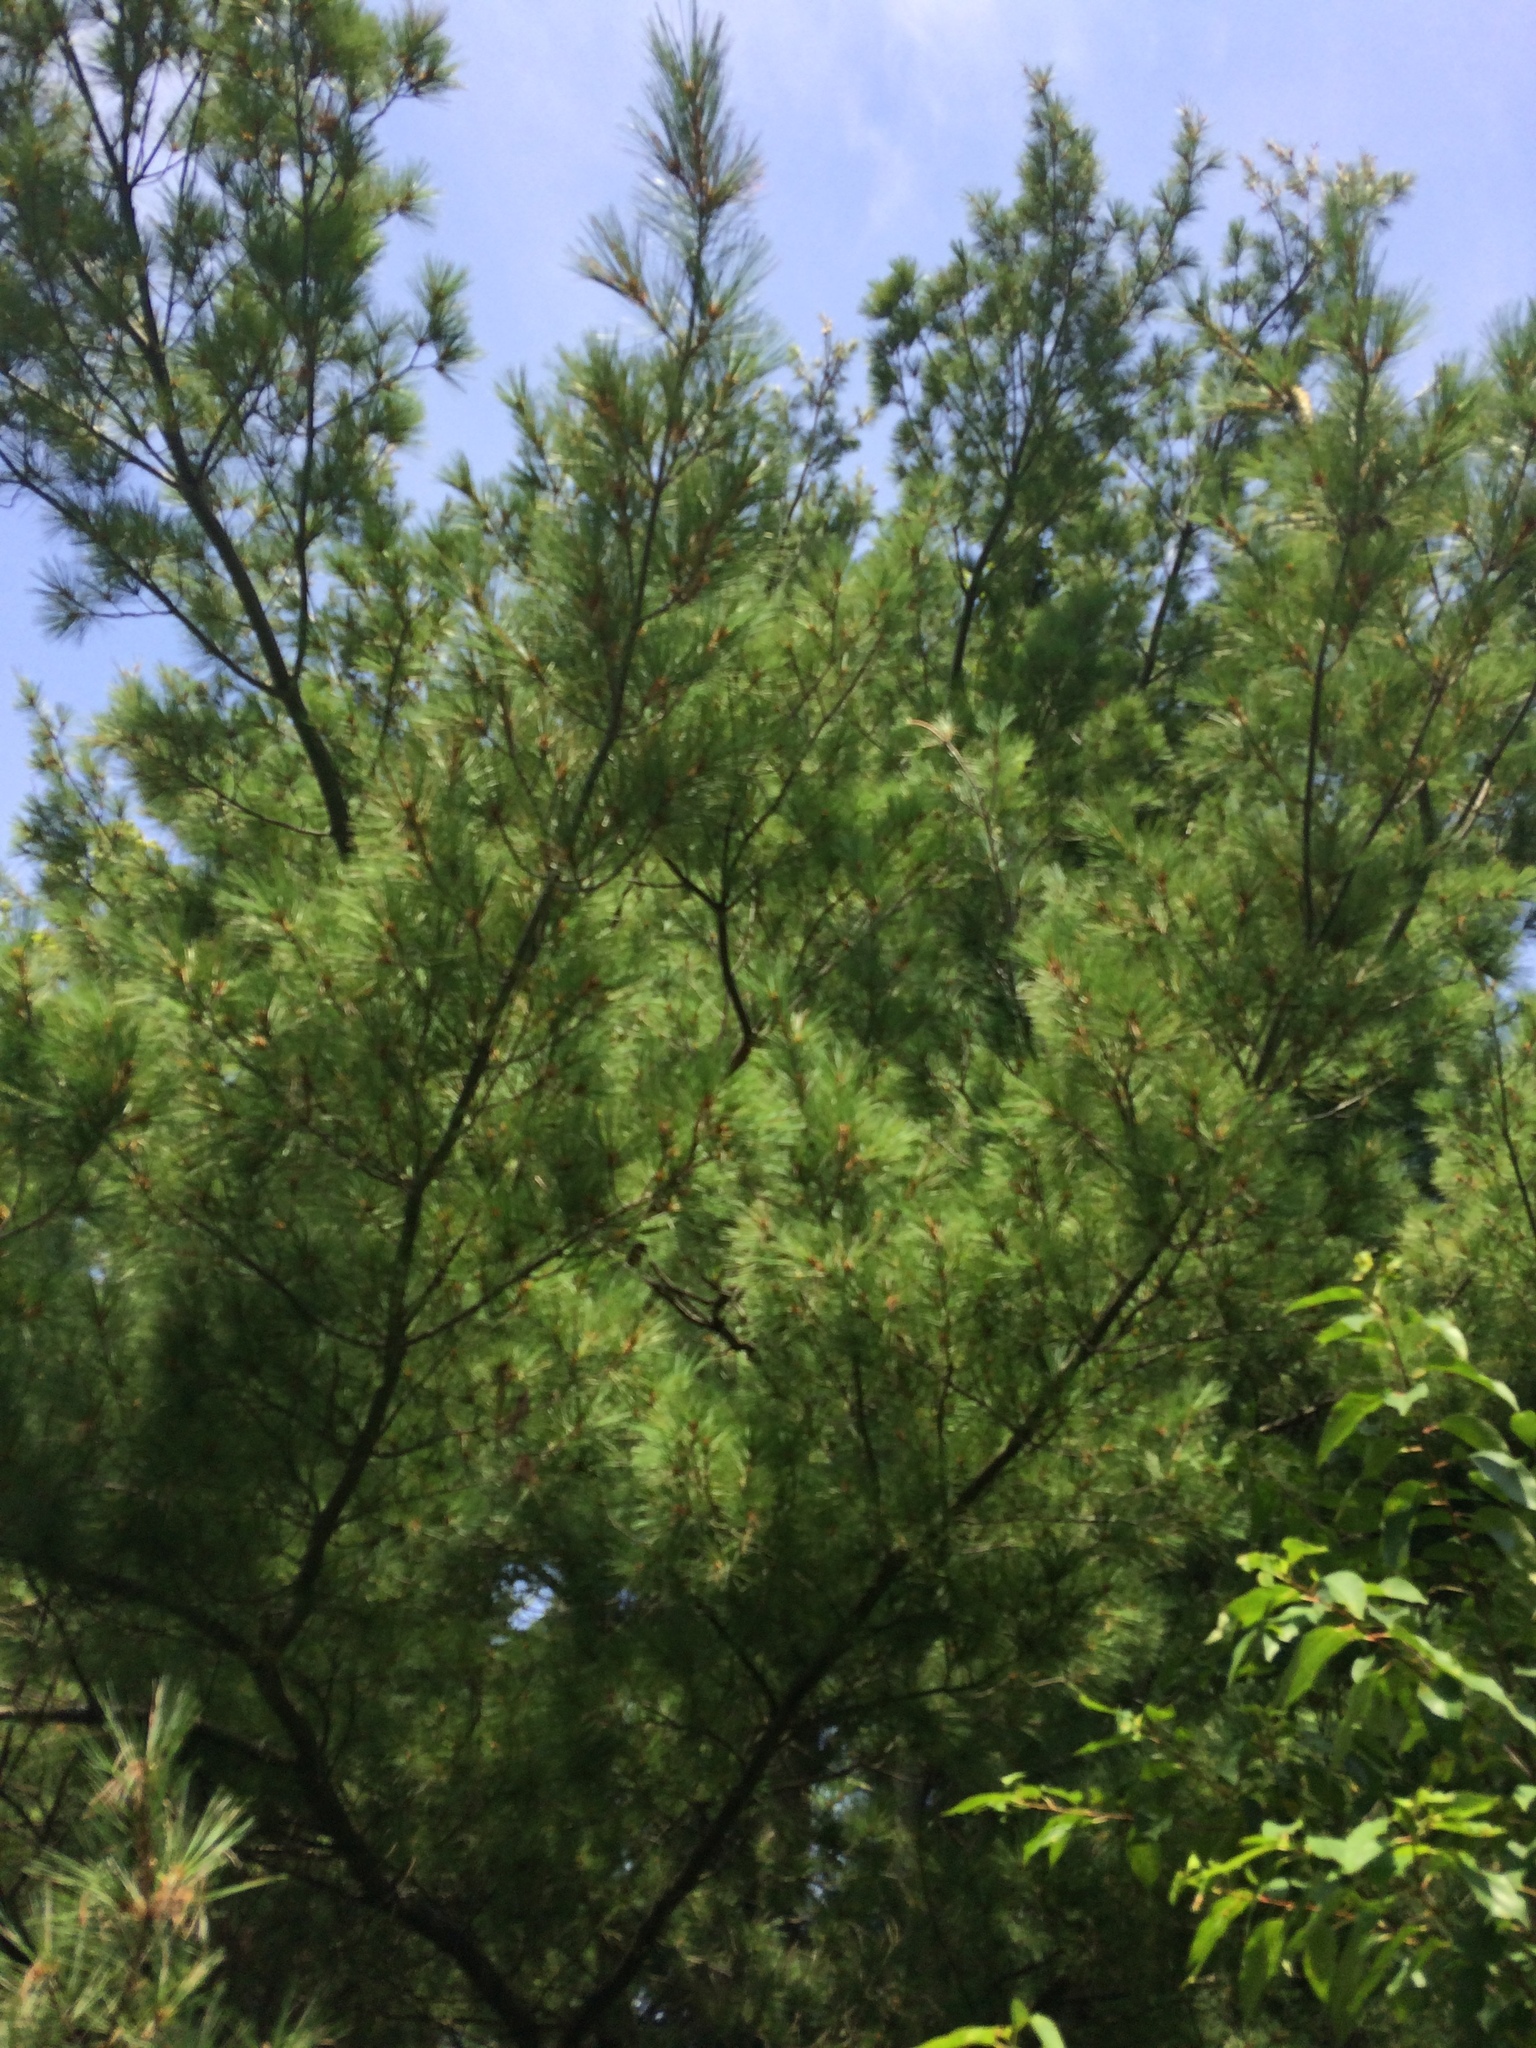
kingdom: Plantae
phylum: Tracheophyta
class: Pinopsida
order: Pinales
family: Pinaceae
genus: Pinus
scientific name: Pinus strobus
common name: Weymouth pine
